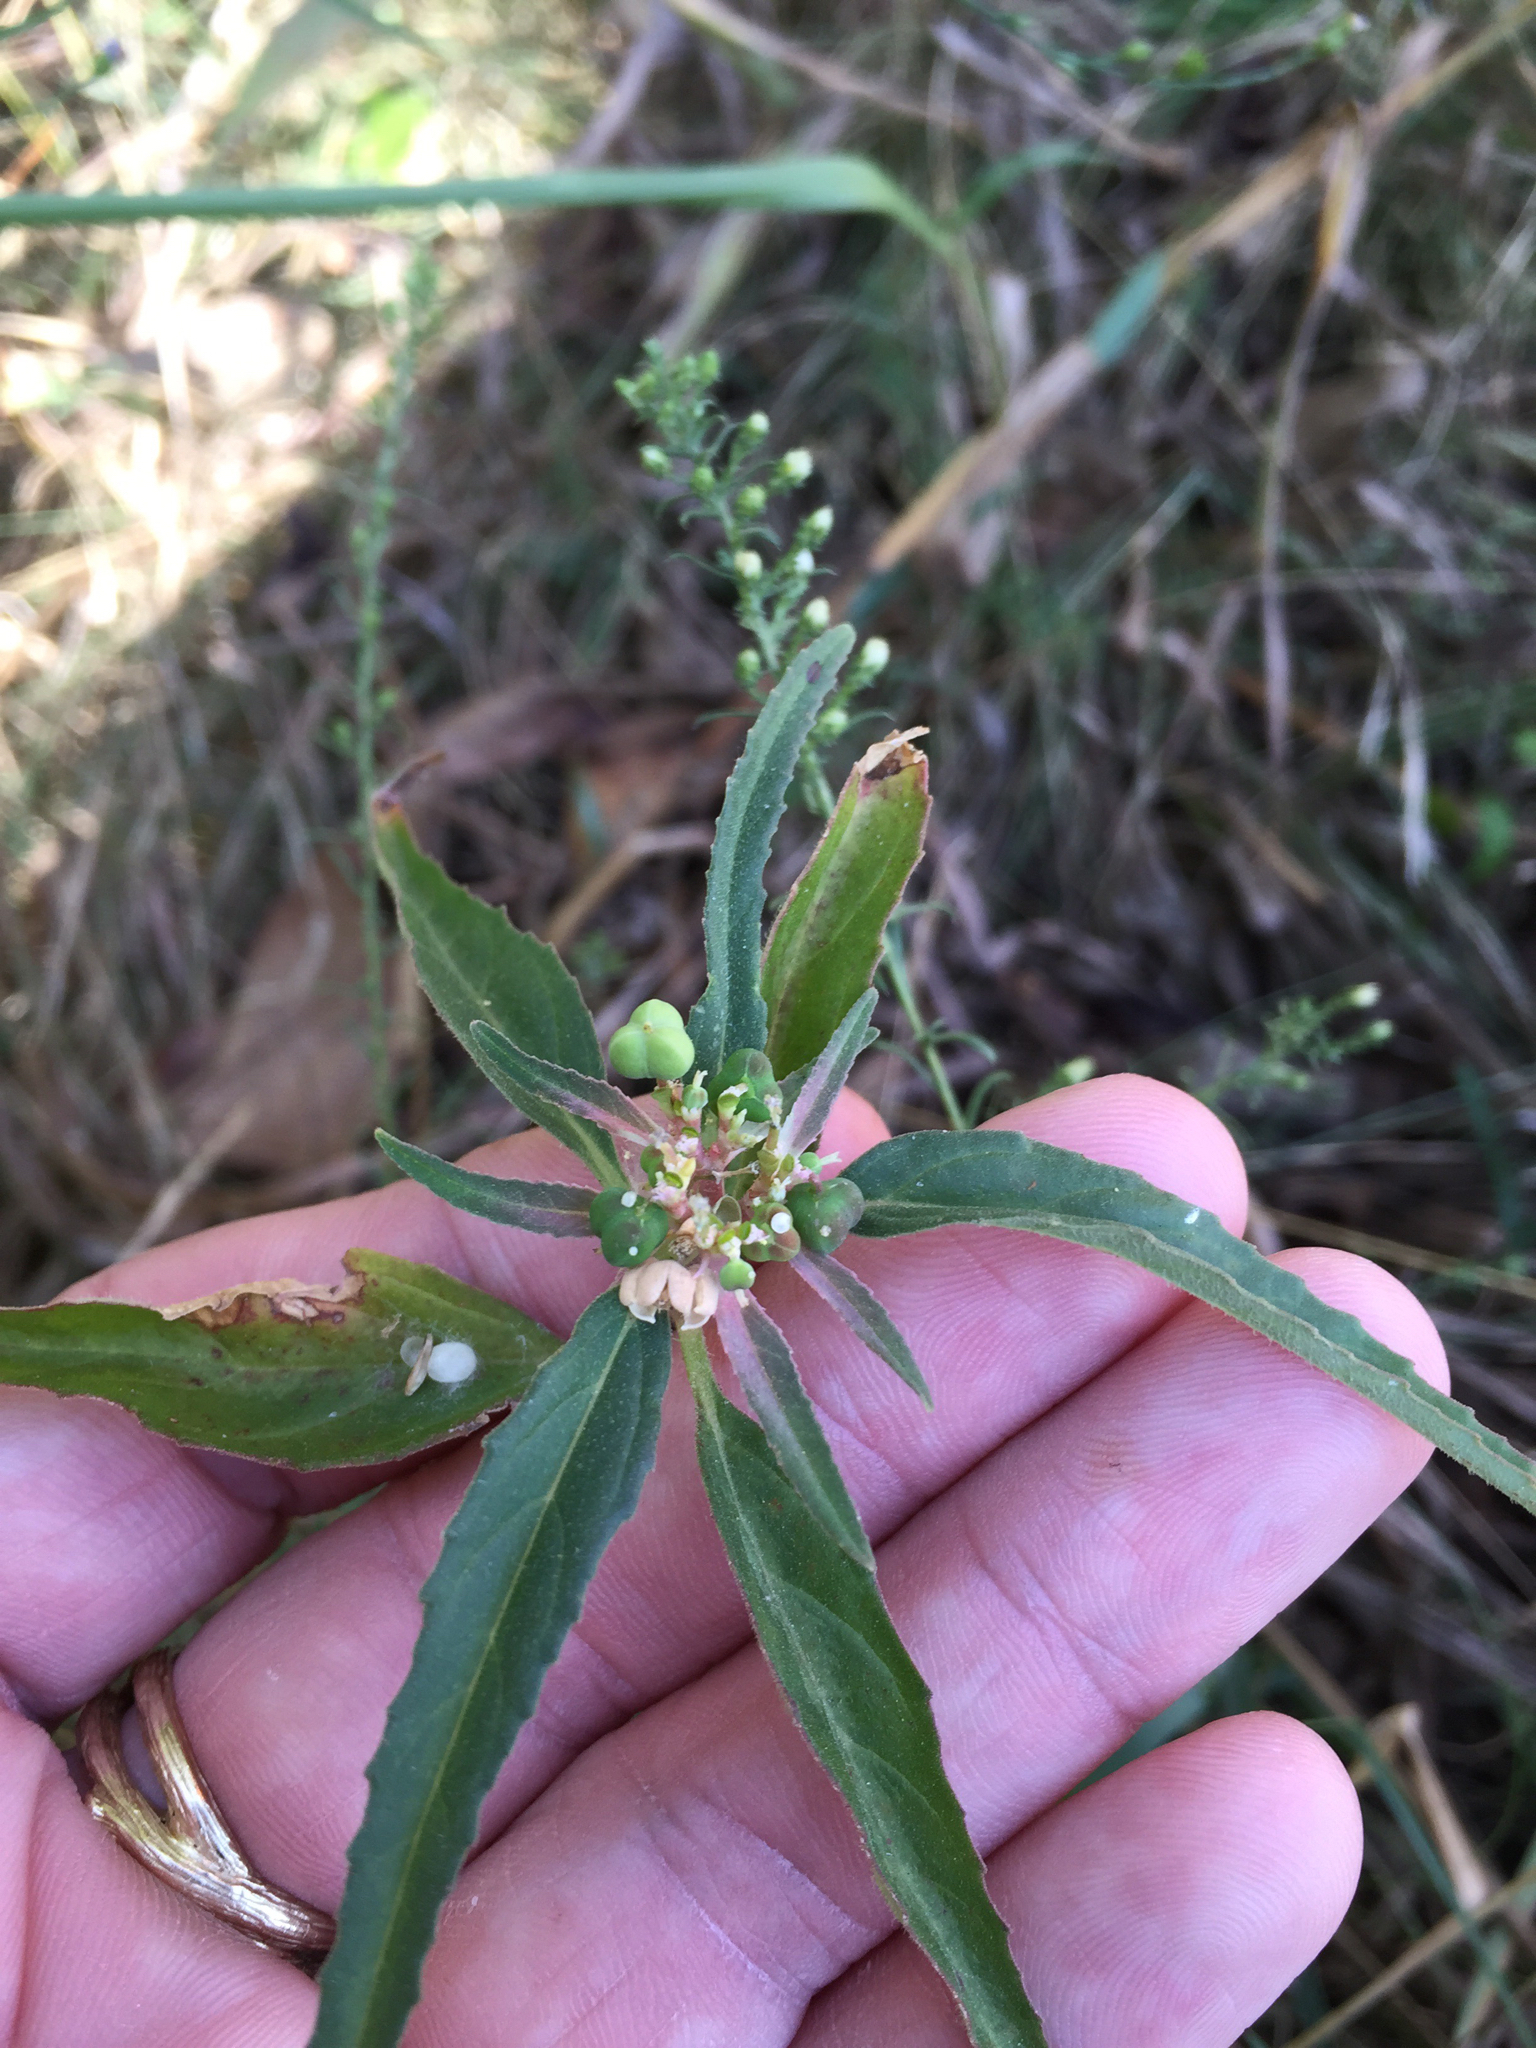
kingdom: Plantae
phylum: Tracheophyta
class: Magnoliopsida
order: Malpighiales
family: Euphorbiaceae
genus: Euphorbia
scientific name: Euphorbia dentata
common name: Dentate spurge
